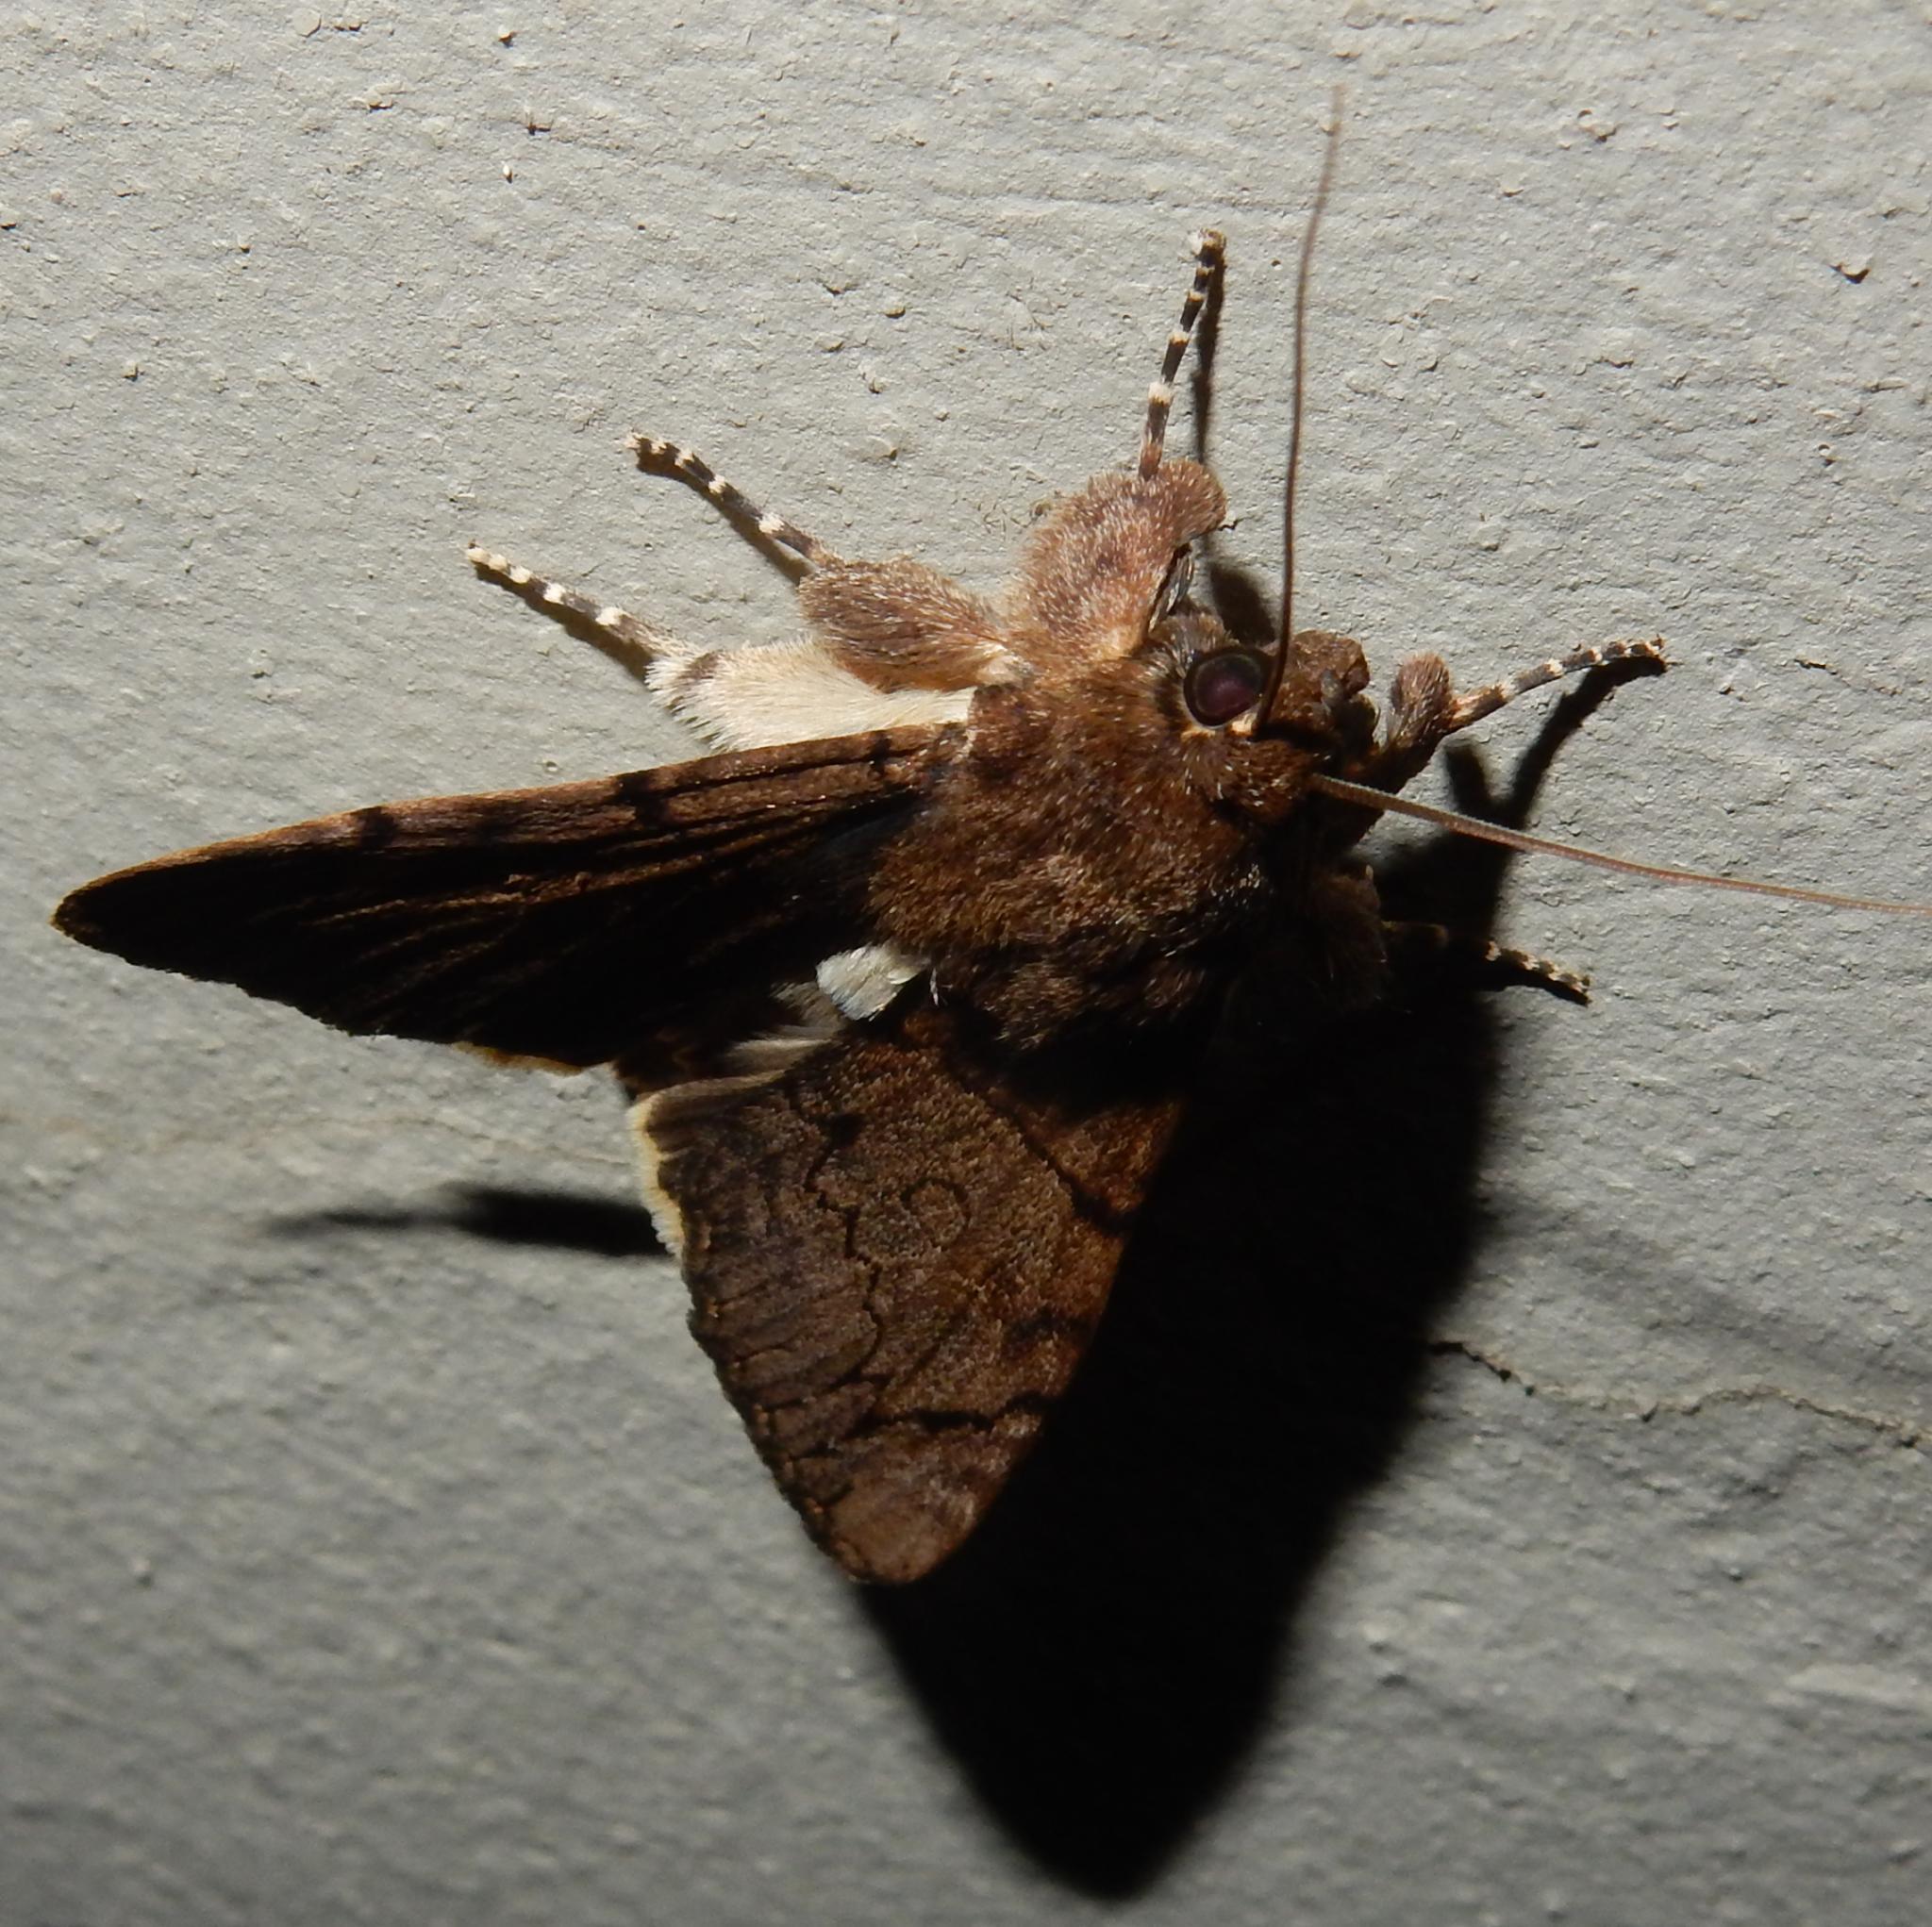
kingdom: Animalia
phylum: Arthropoda
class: Insecta
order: Lepidoptera
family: Erebidae
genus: Ulotrichopus
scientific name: Ulotrichopus mesoleuca
